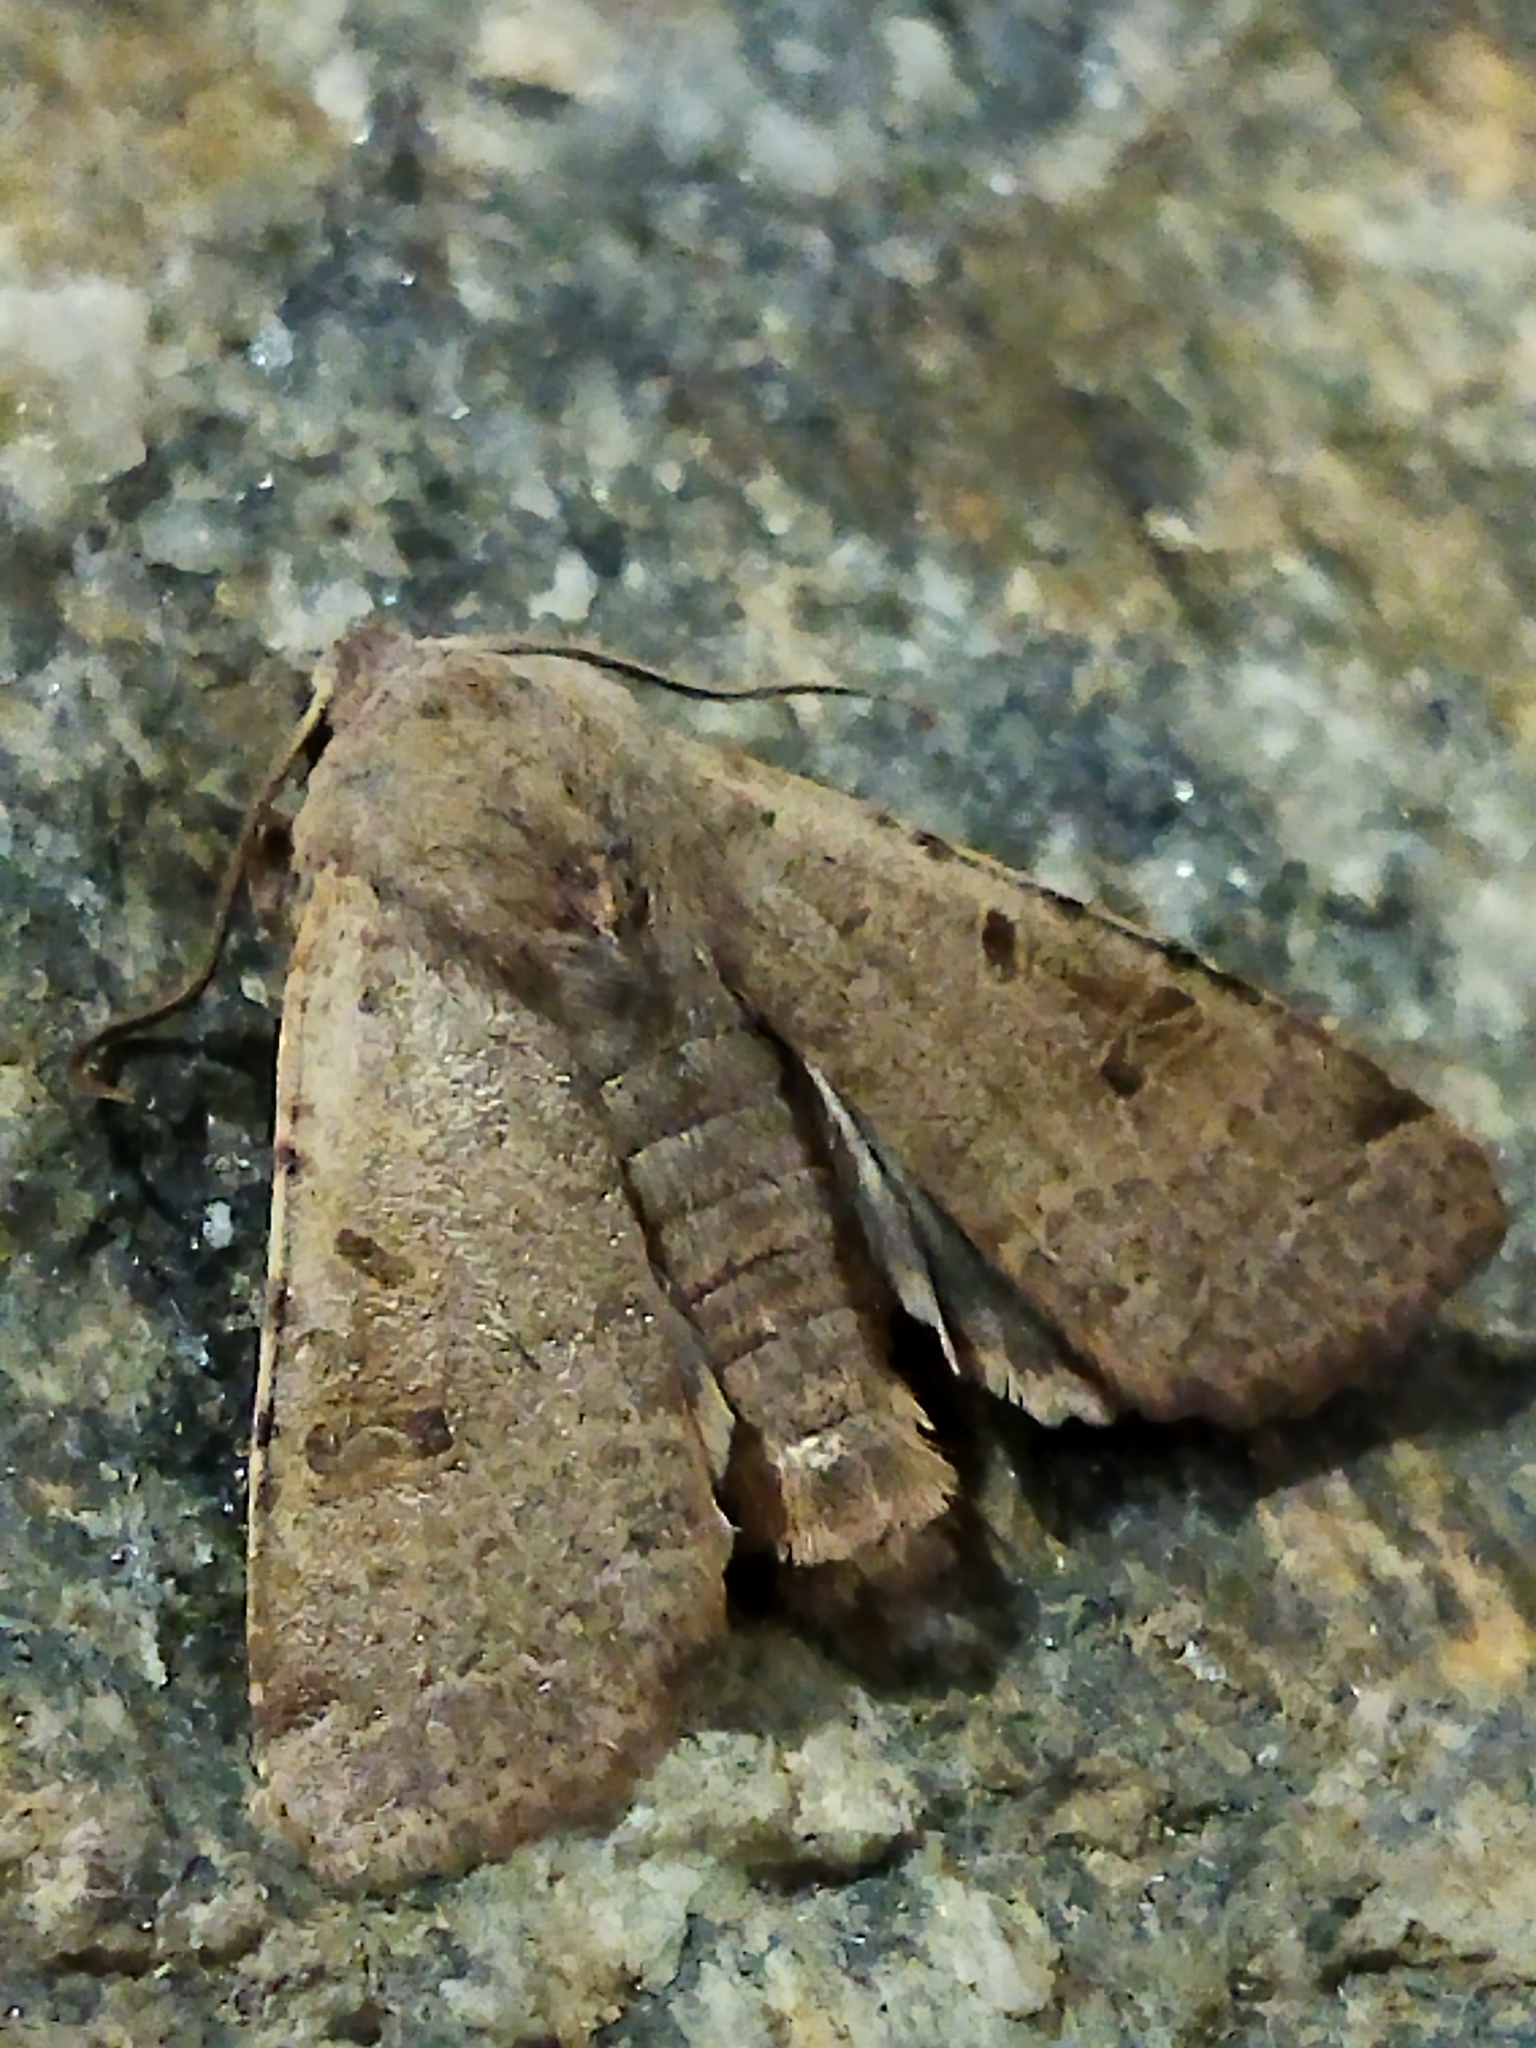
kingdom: Animalia
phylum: Arthropoda
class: Insecta
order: Lepidoptera
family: Noctuidae
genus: Agrochola
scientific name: Agrochola lychnidis
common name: Beaded chestnut
